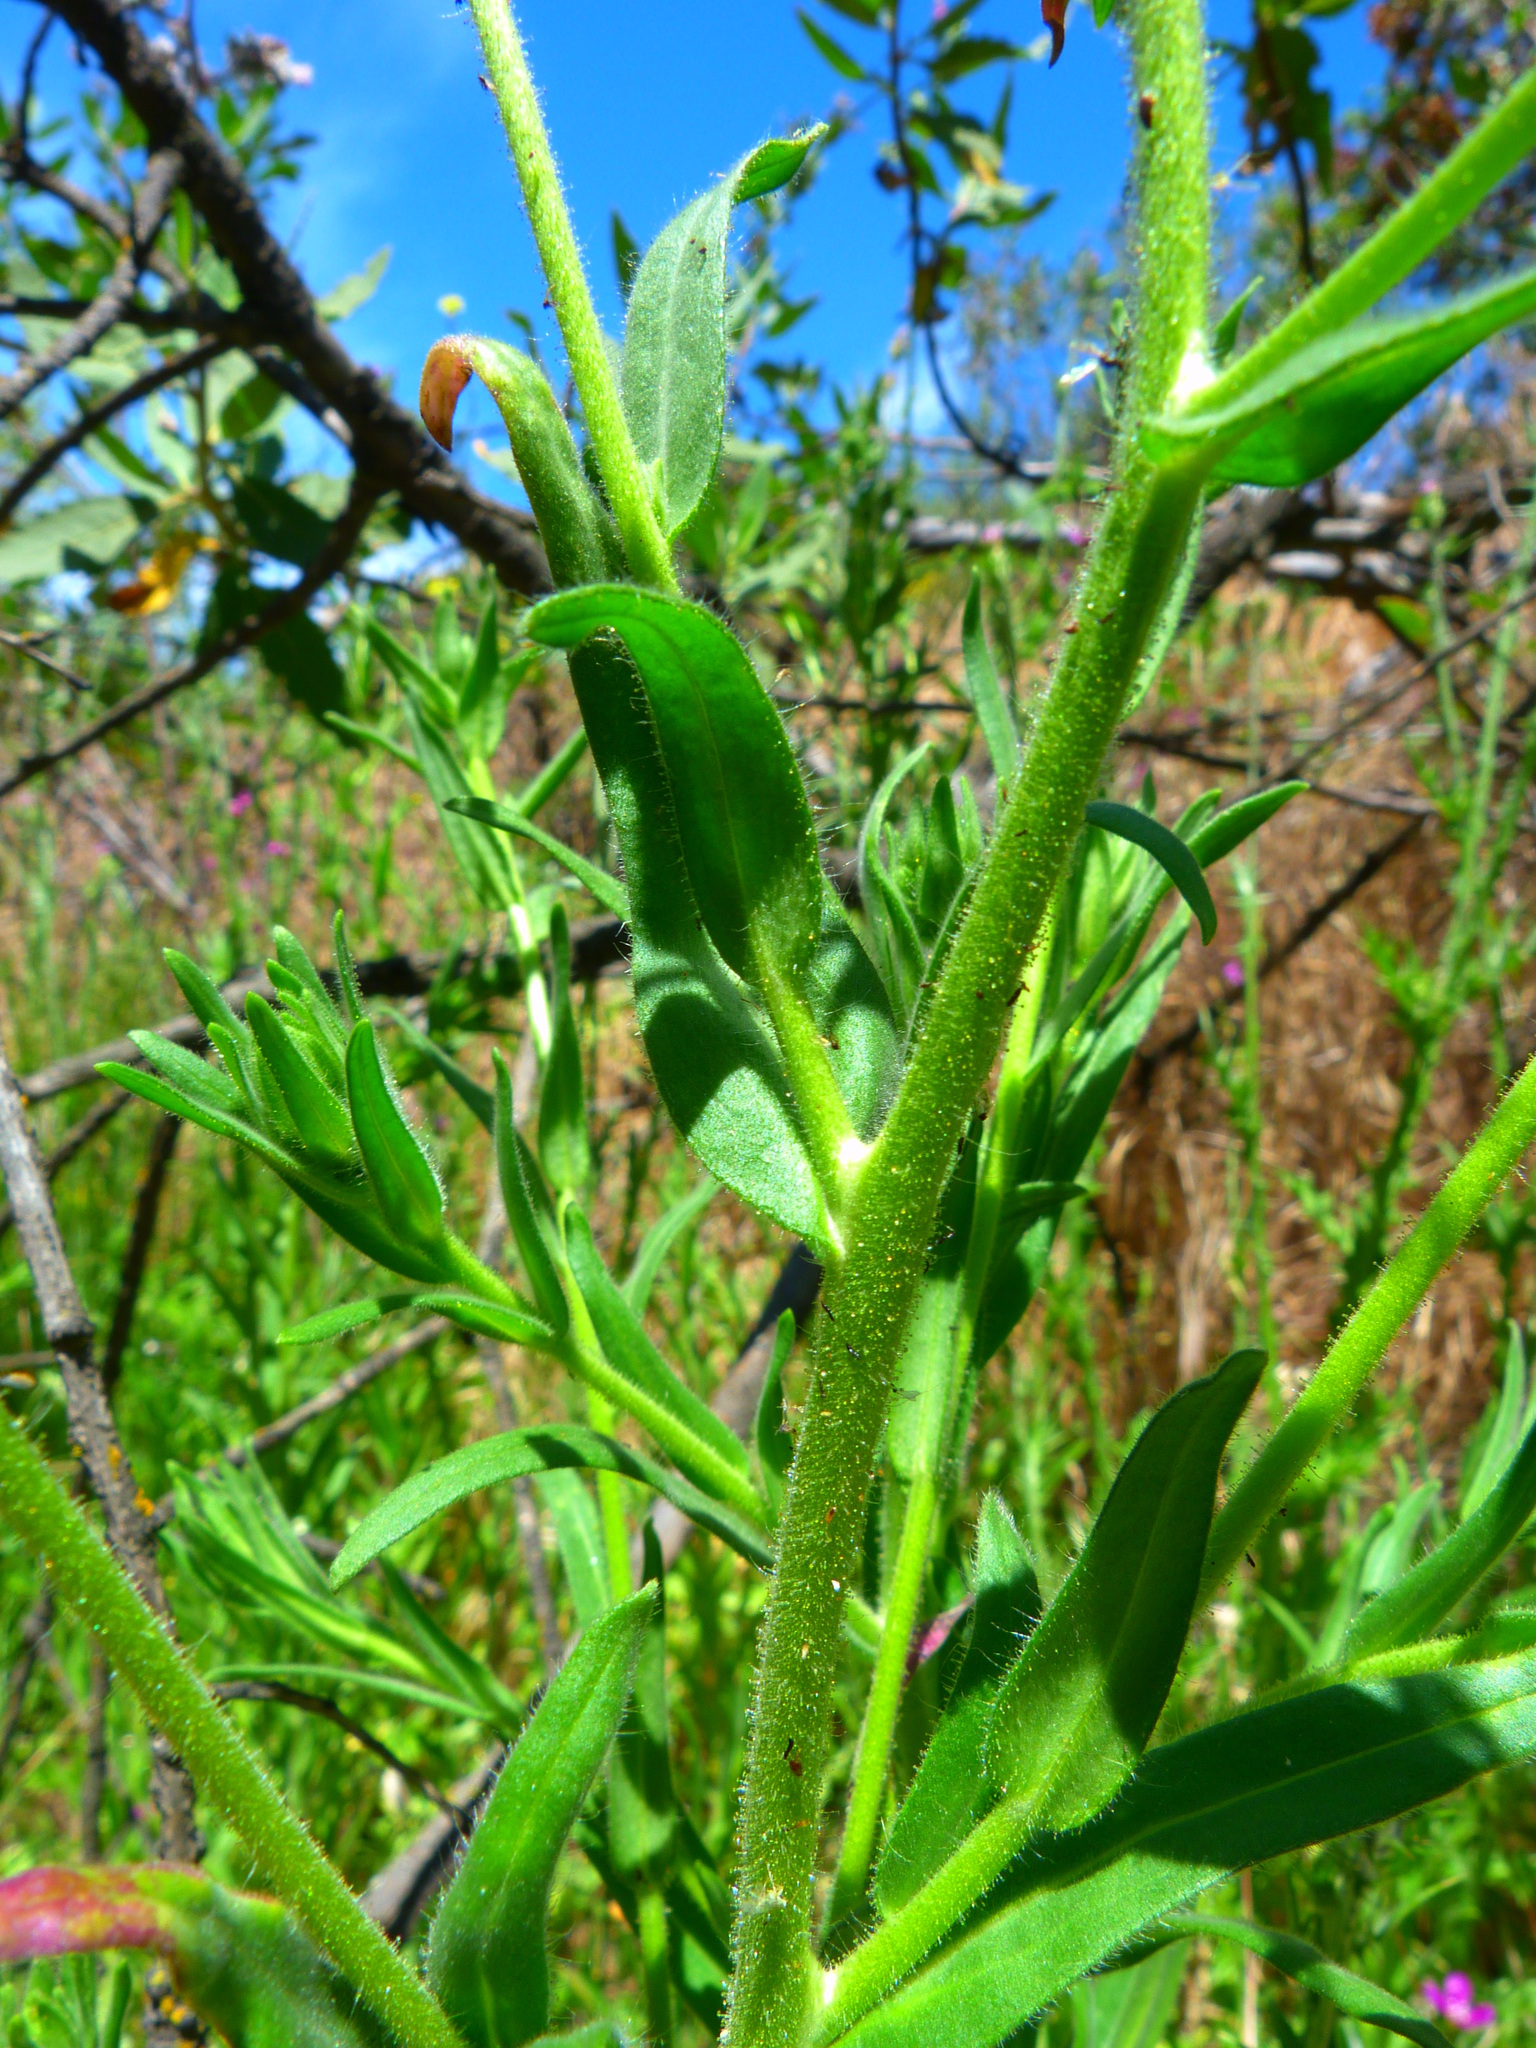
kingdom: Plantae
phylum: Tracheophyta
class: Magnoliopsida
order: Asterales
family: Asteraceae
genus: Madia
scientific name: Madia gracilis
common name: Grassy tarweed
